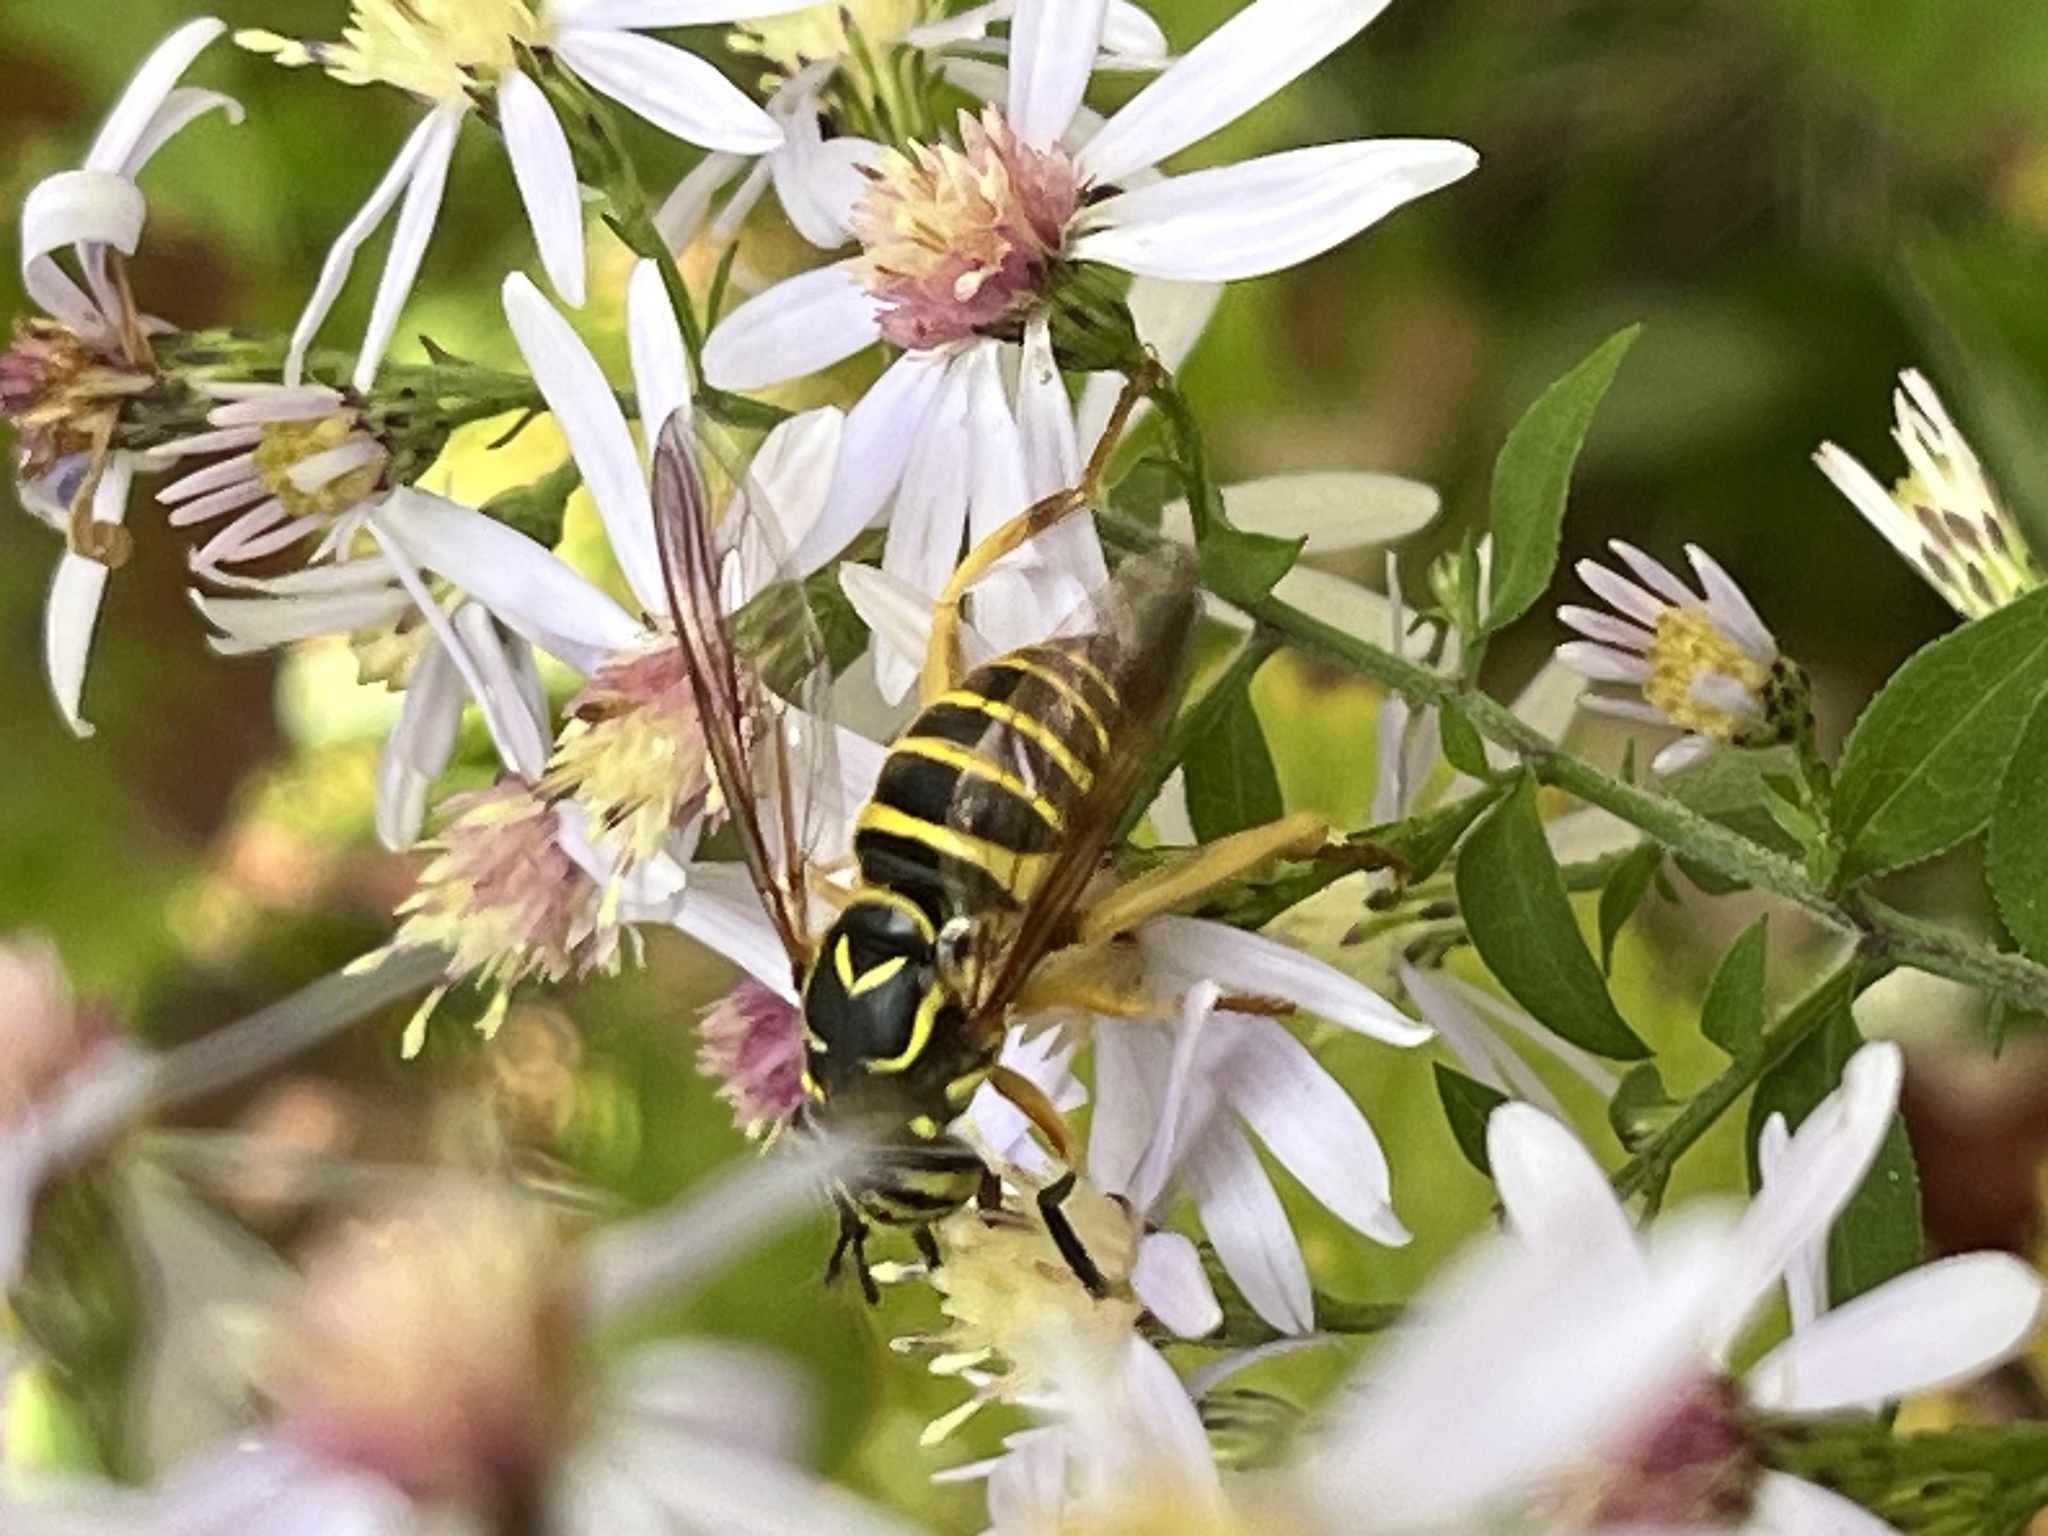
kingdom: Animalia
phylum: Arthropoda
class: Insecta
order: Diptera
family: Syrphidae
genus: Spilomyia
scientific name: Spilomyia longicornis
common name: Eastern hornet fly
